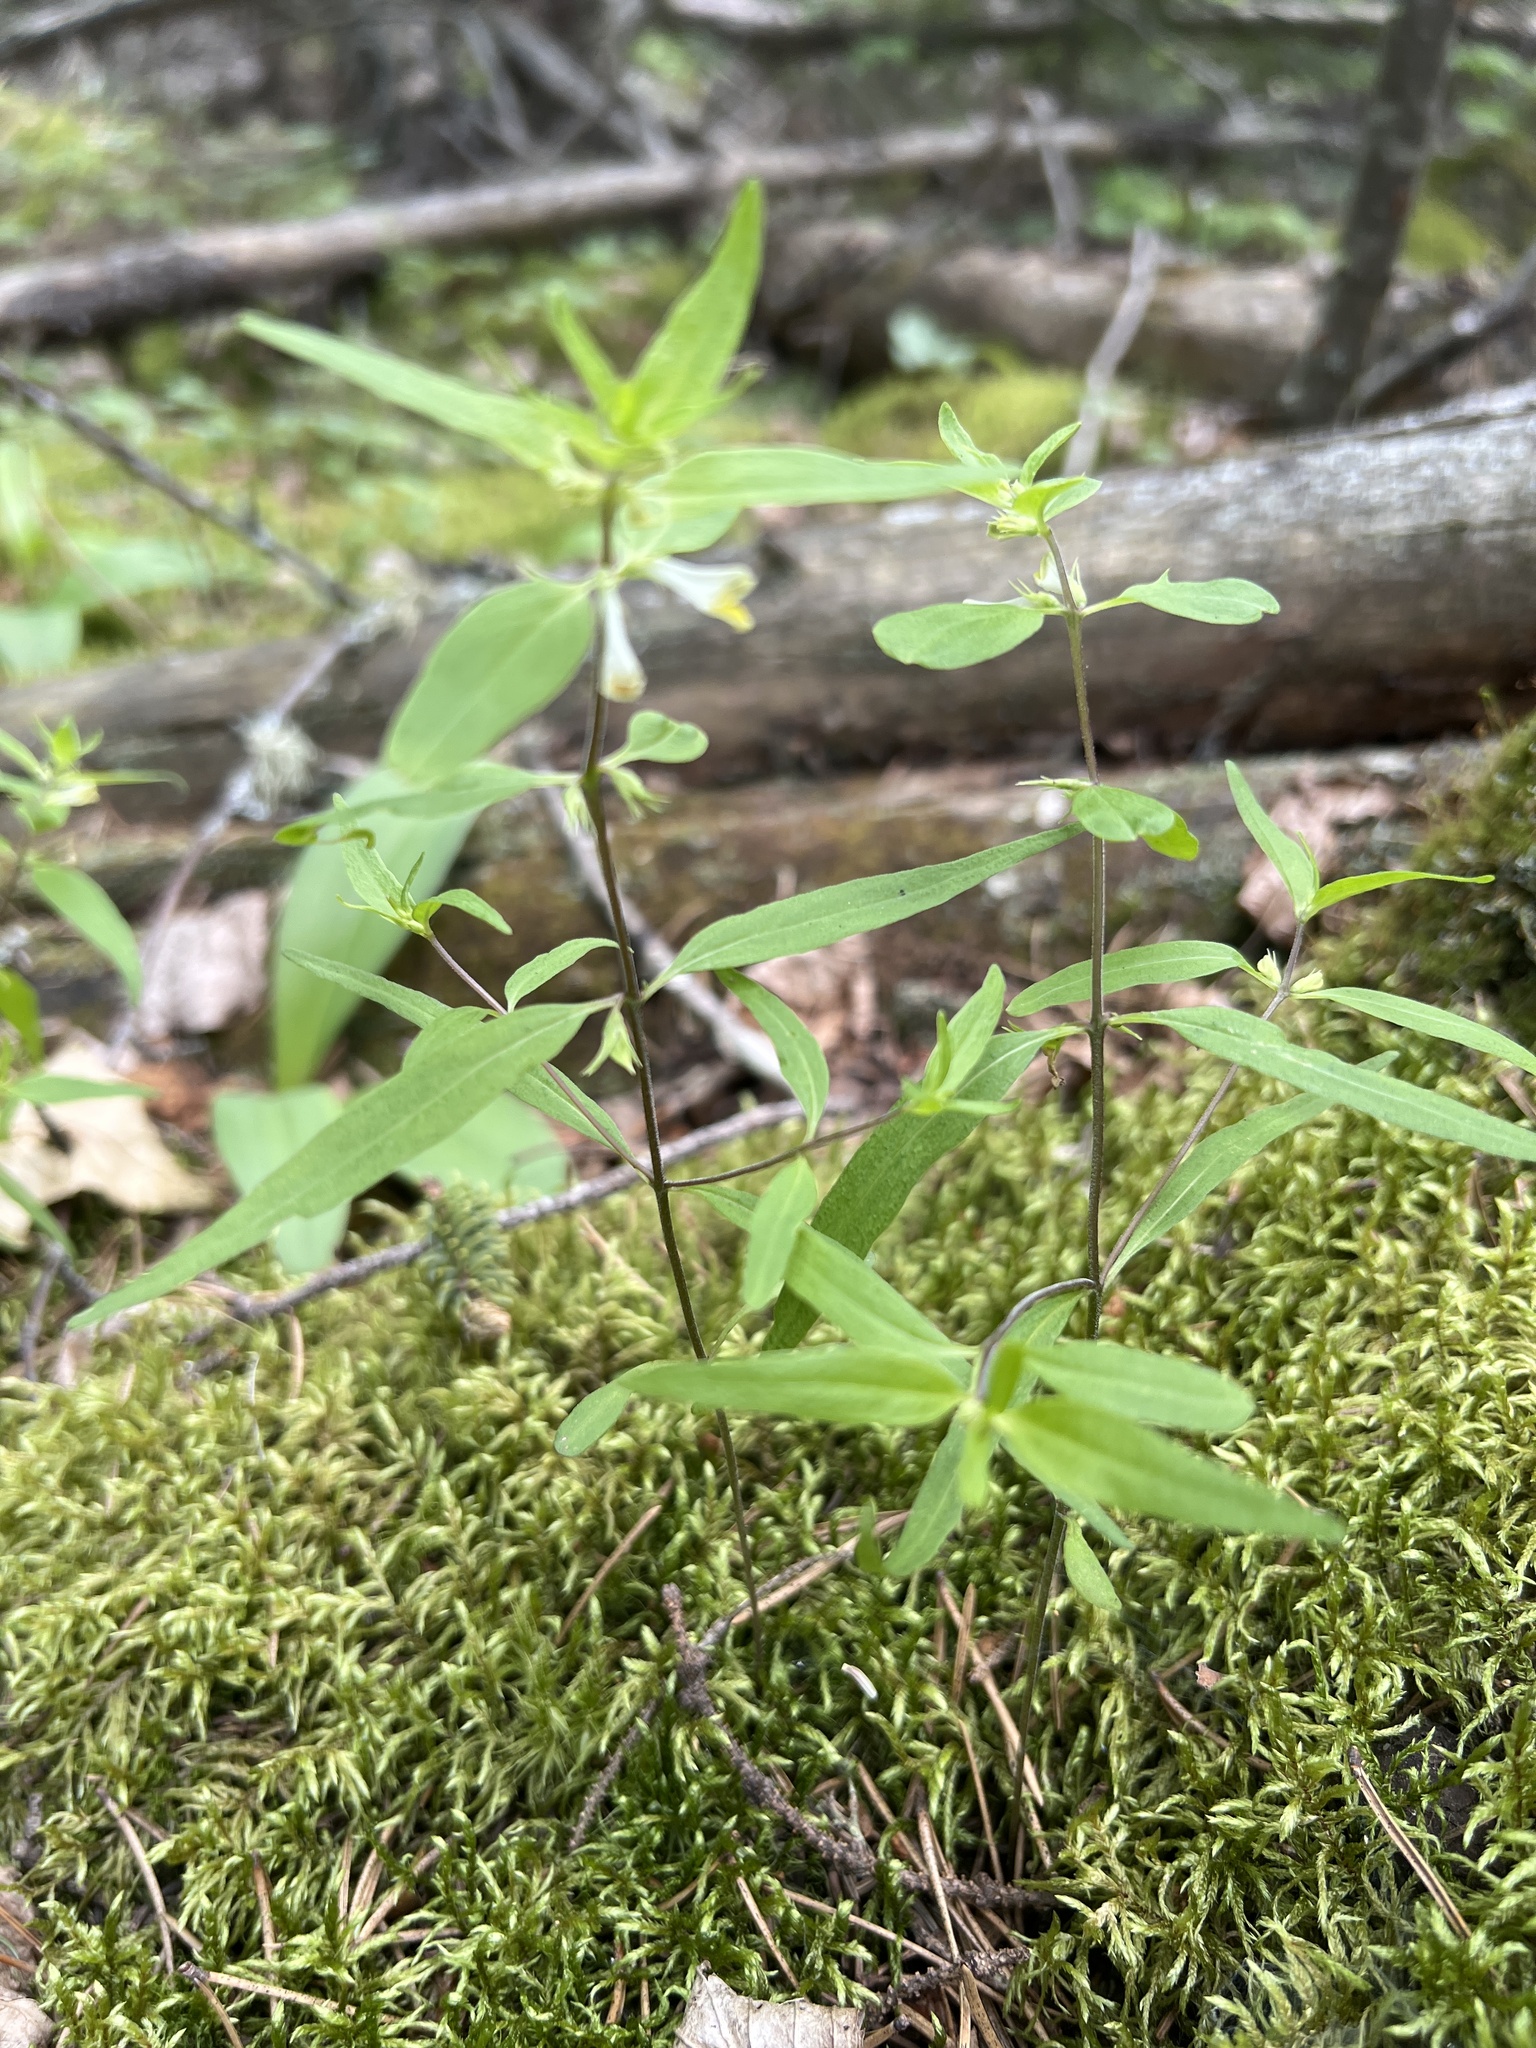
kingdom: Plantae
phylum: Tracheophyta
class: Magnoliopsida
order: Lamiales
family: Orobanchaceae
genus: Melampyrum
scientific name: Melampyrum lineare
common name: American cow-wheat
